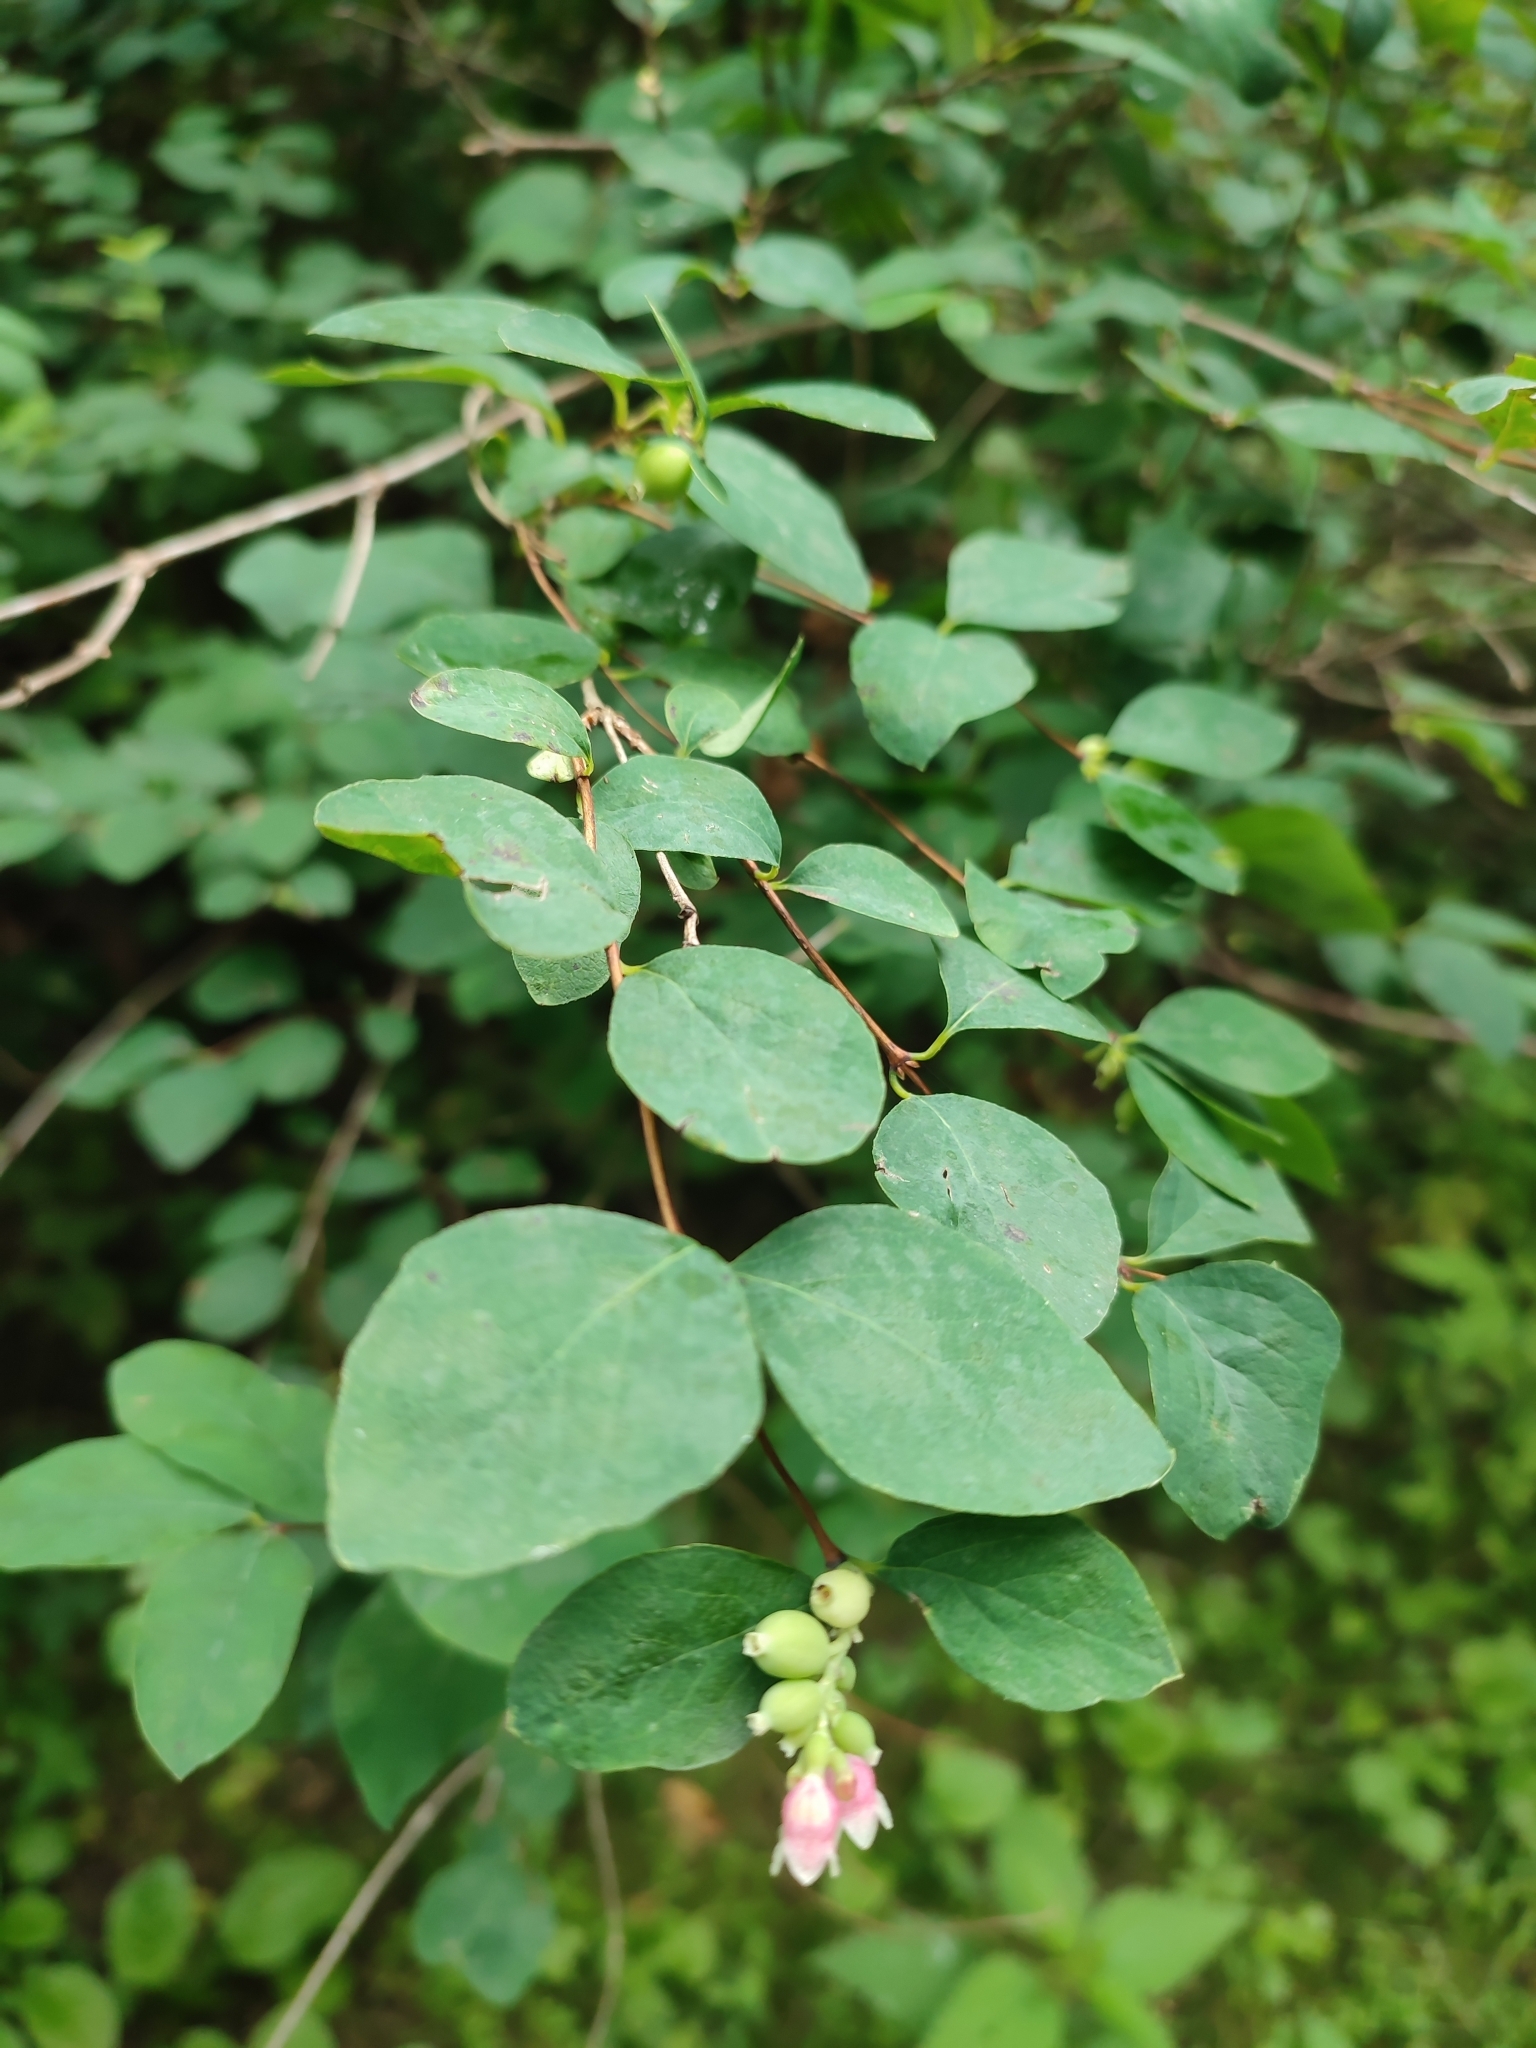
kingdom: Plantae
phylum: Tracheophyta
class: Magnoliopsida
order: Dipsacales
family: Caprifoliaceae
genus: Symphoricarpos
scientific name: Symphoricarpos albus
